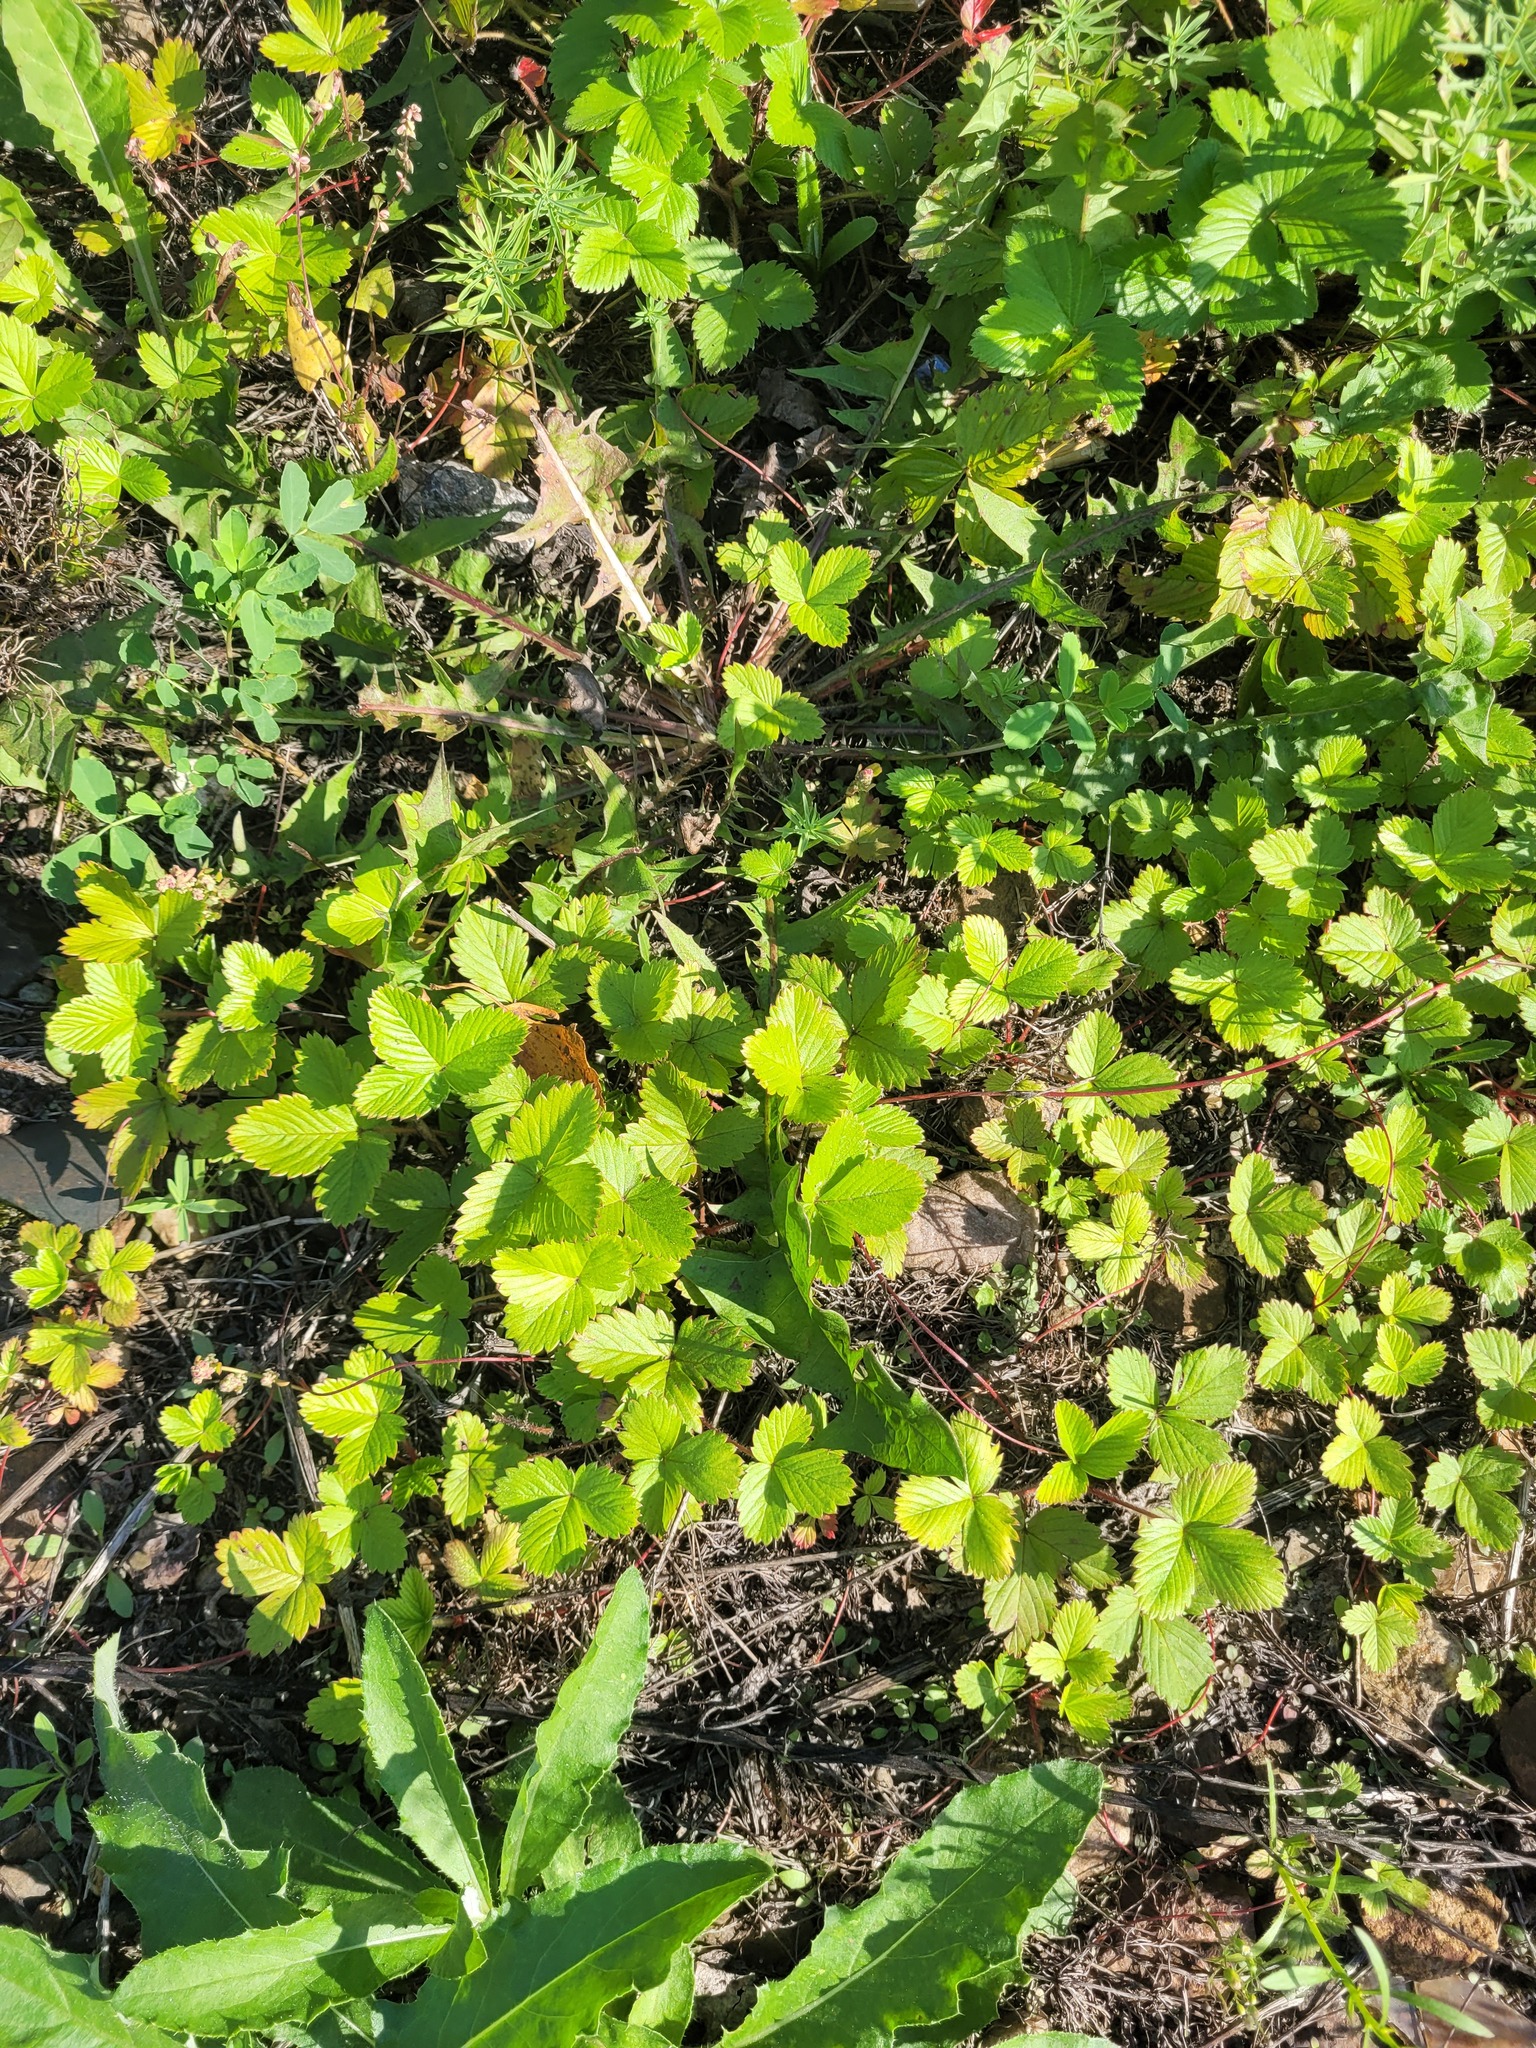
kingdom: Plantae
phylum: Tracheophyta
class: Magnoliopsida
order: Rosales
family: Rosaceae
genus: Fragaria
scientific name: Fragaria viridis
